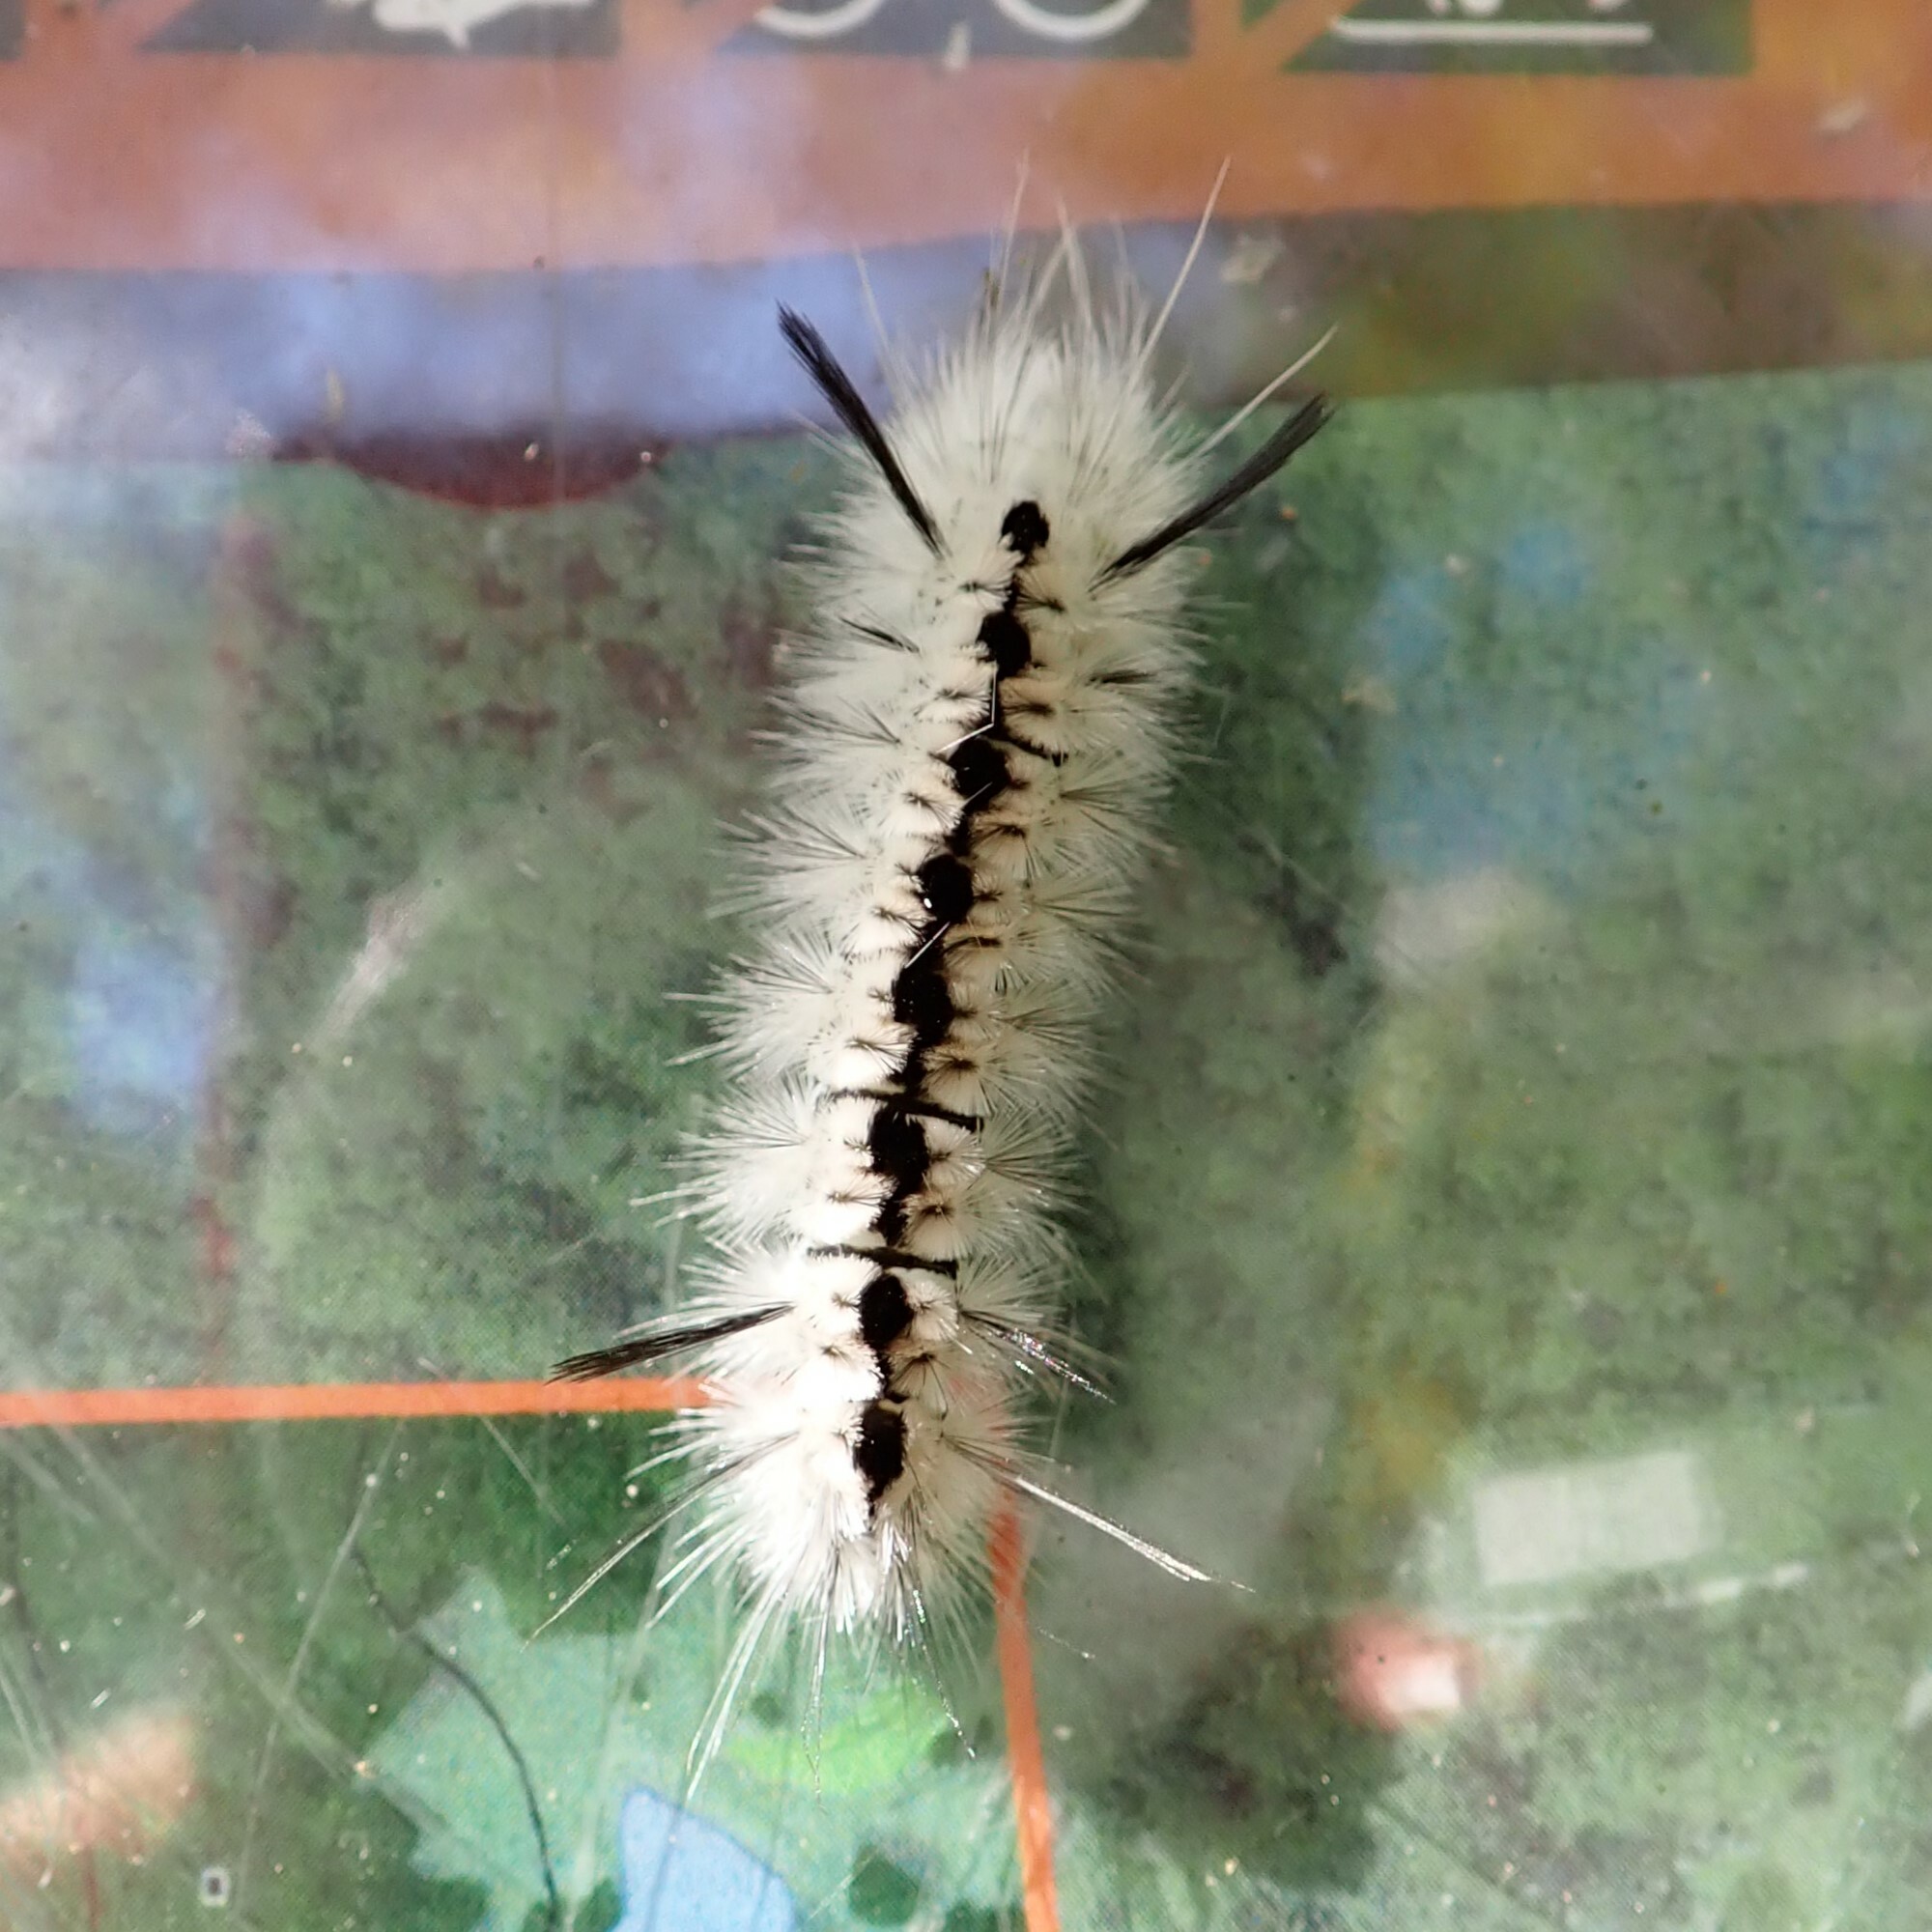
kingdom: Animalia
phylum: Arthropoda
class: Insecta
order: Lepidoptera
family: Erebidae
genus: Lophocampa
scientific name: Lophocampa caryae
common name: Hickory tussock moth
